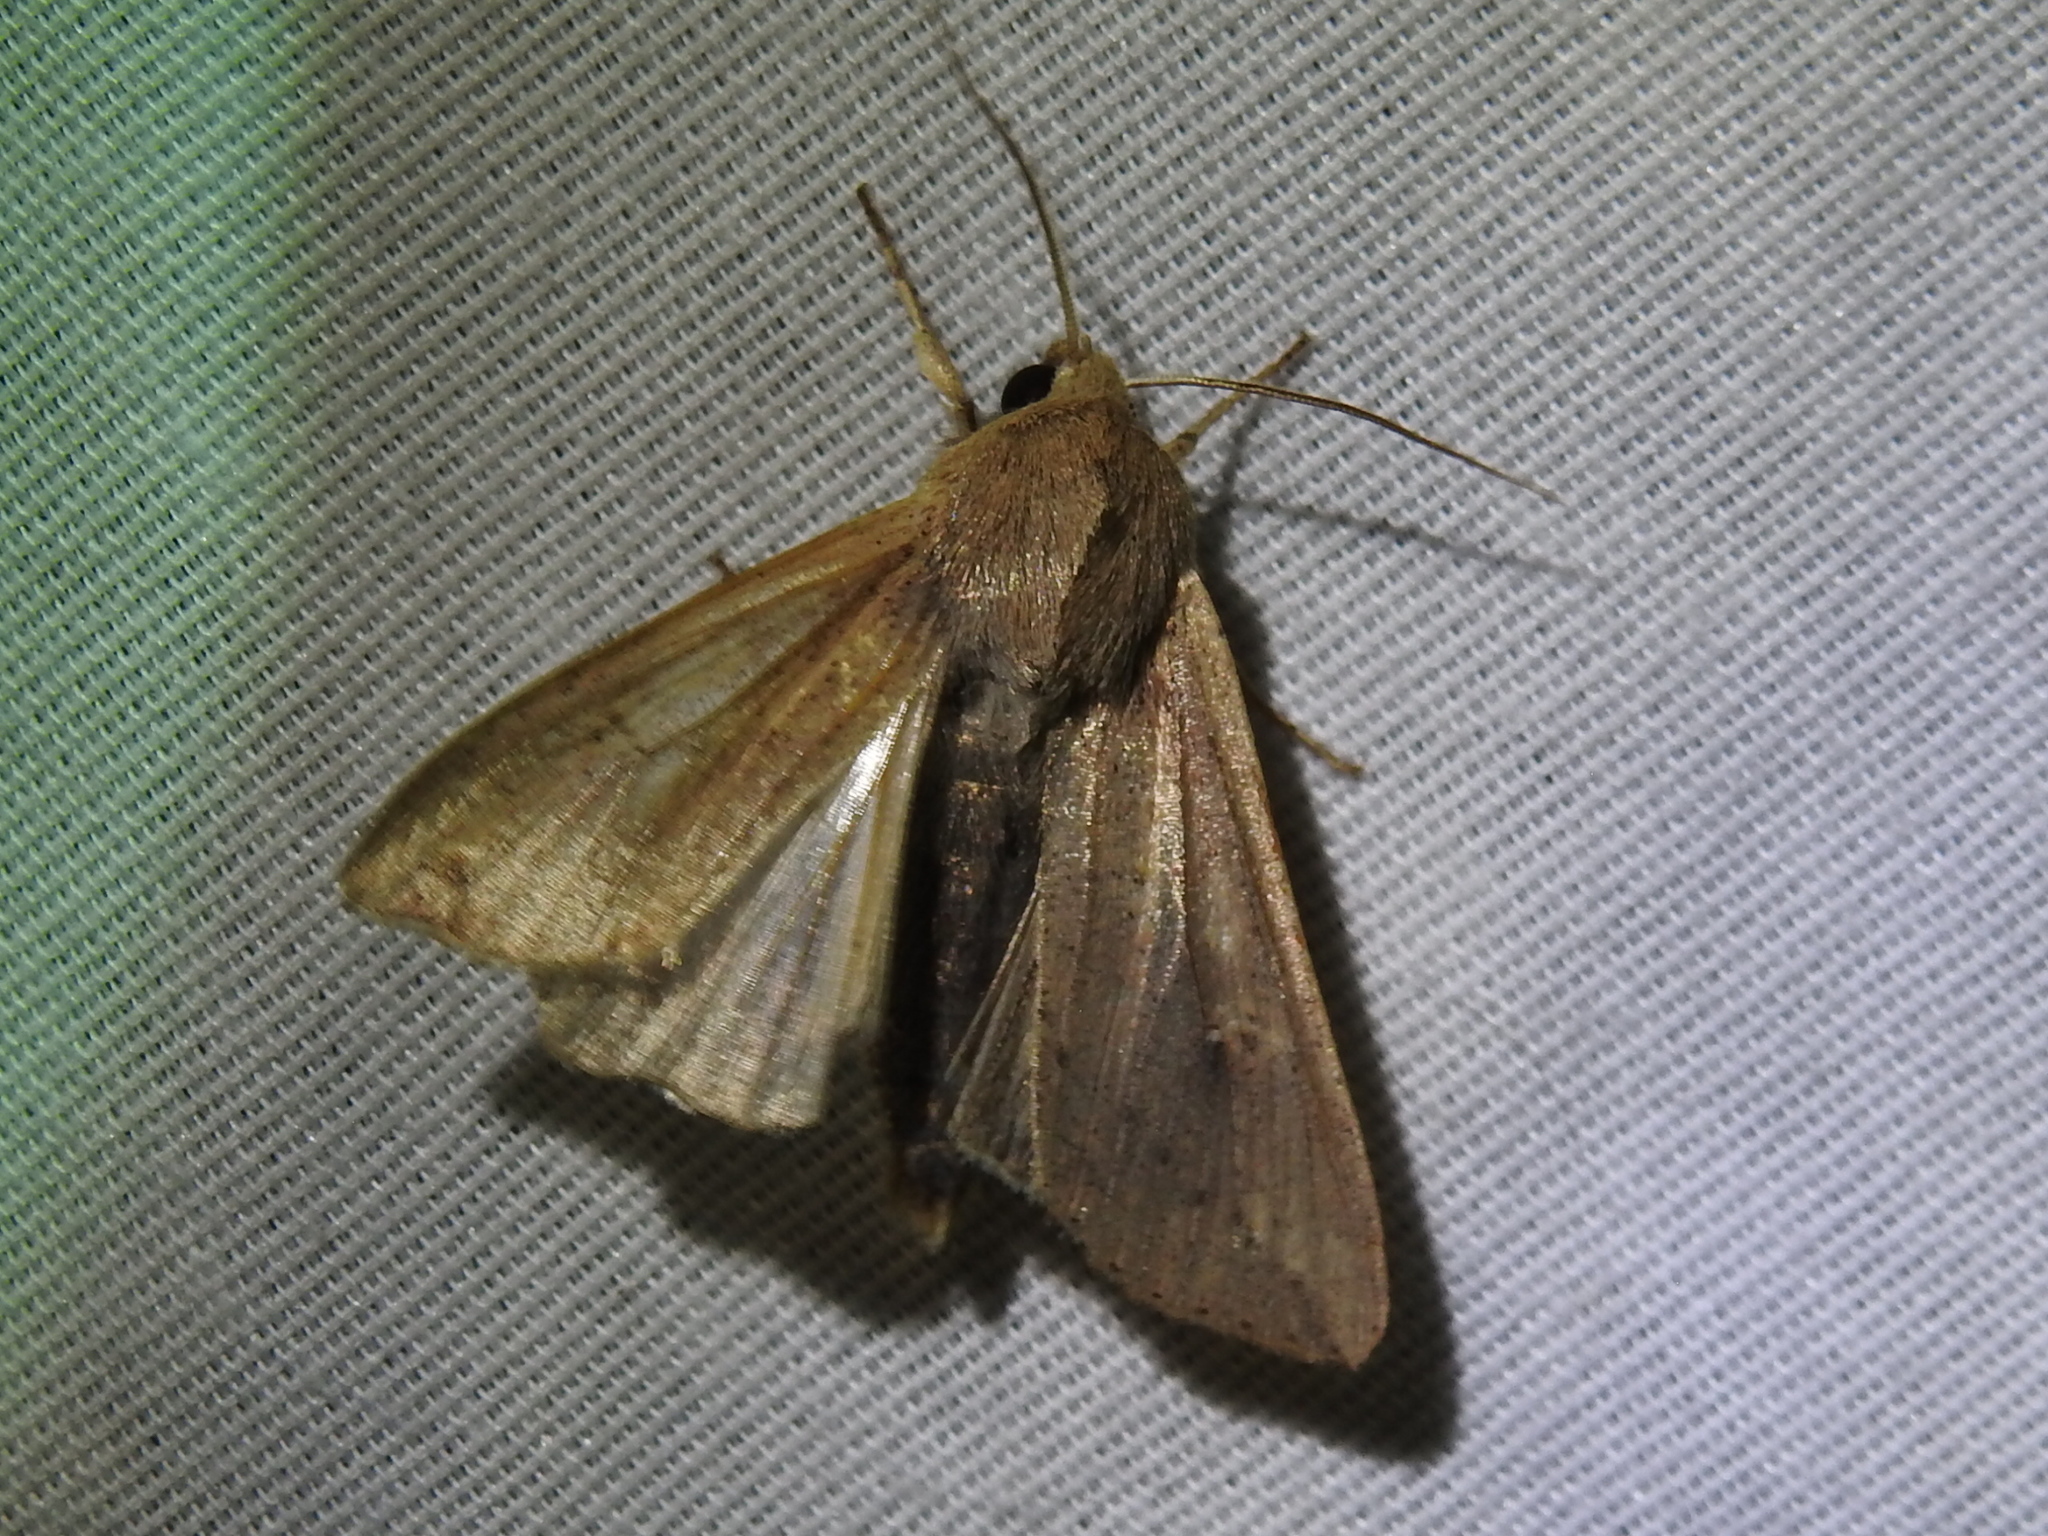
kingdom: Animalia
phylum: Arthropoda
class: Insecta
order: Lepidoptera
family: Noctuidae
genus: Mythimna
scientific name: Mythimna unipuncta
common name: White-speck
